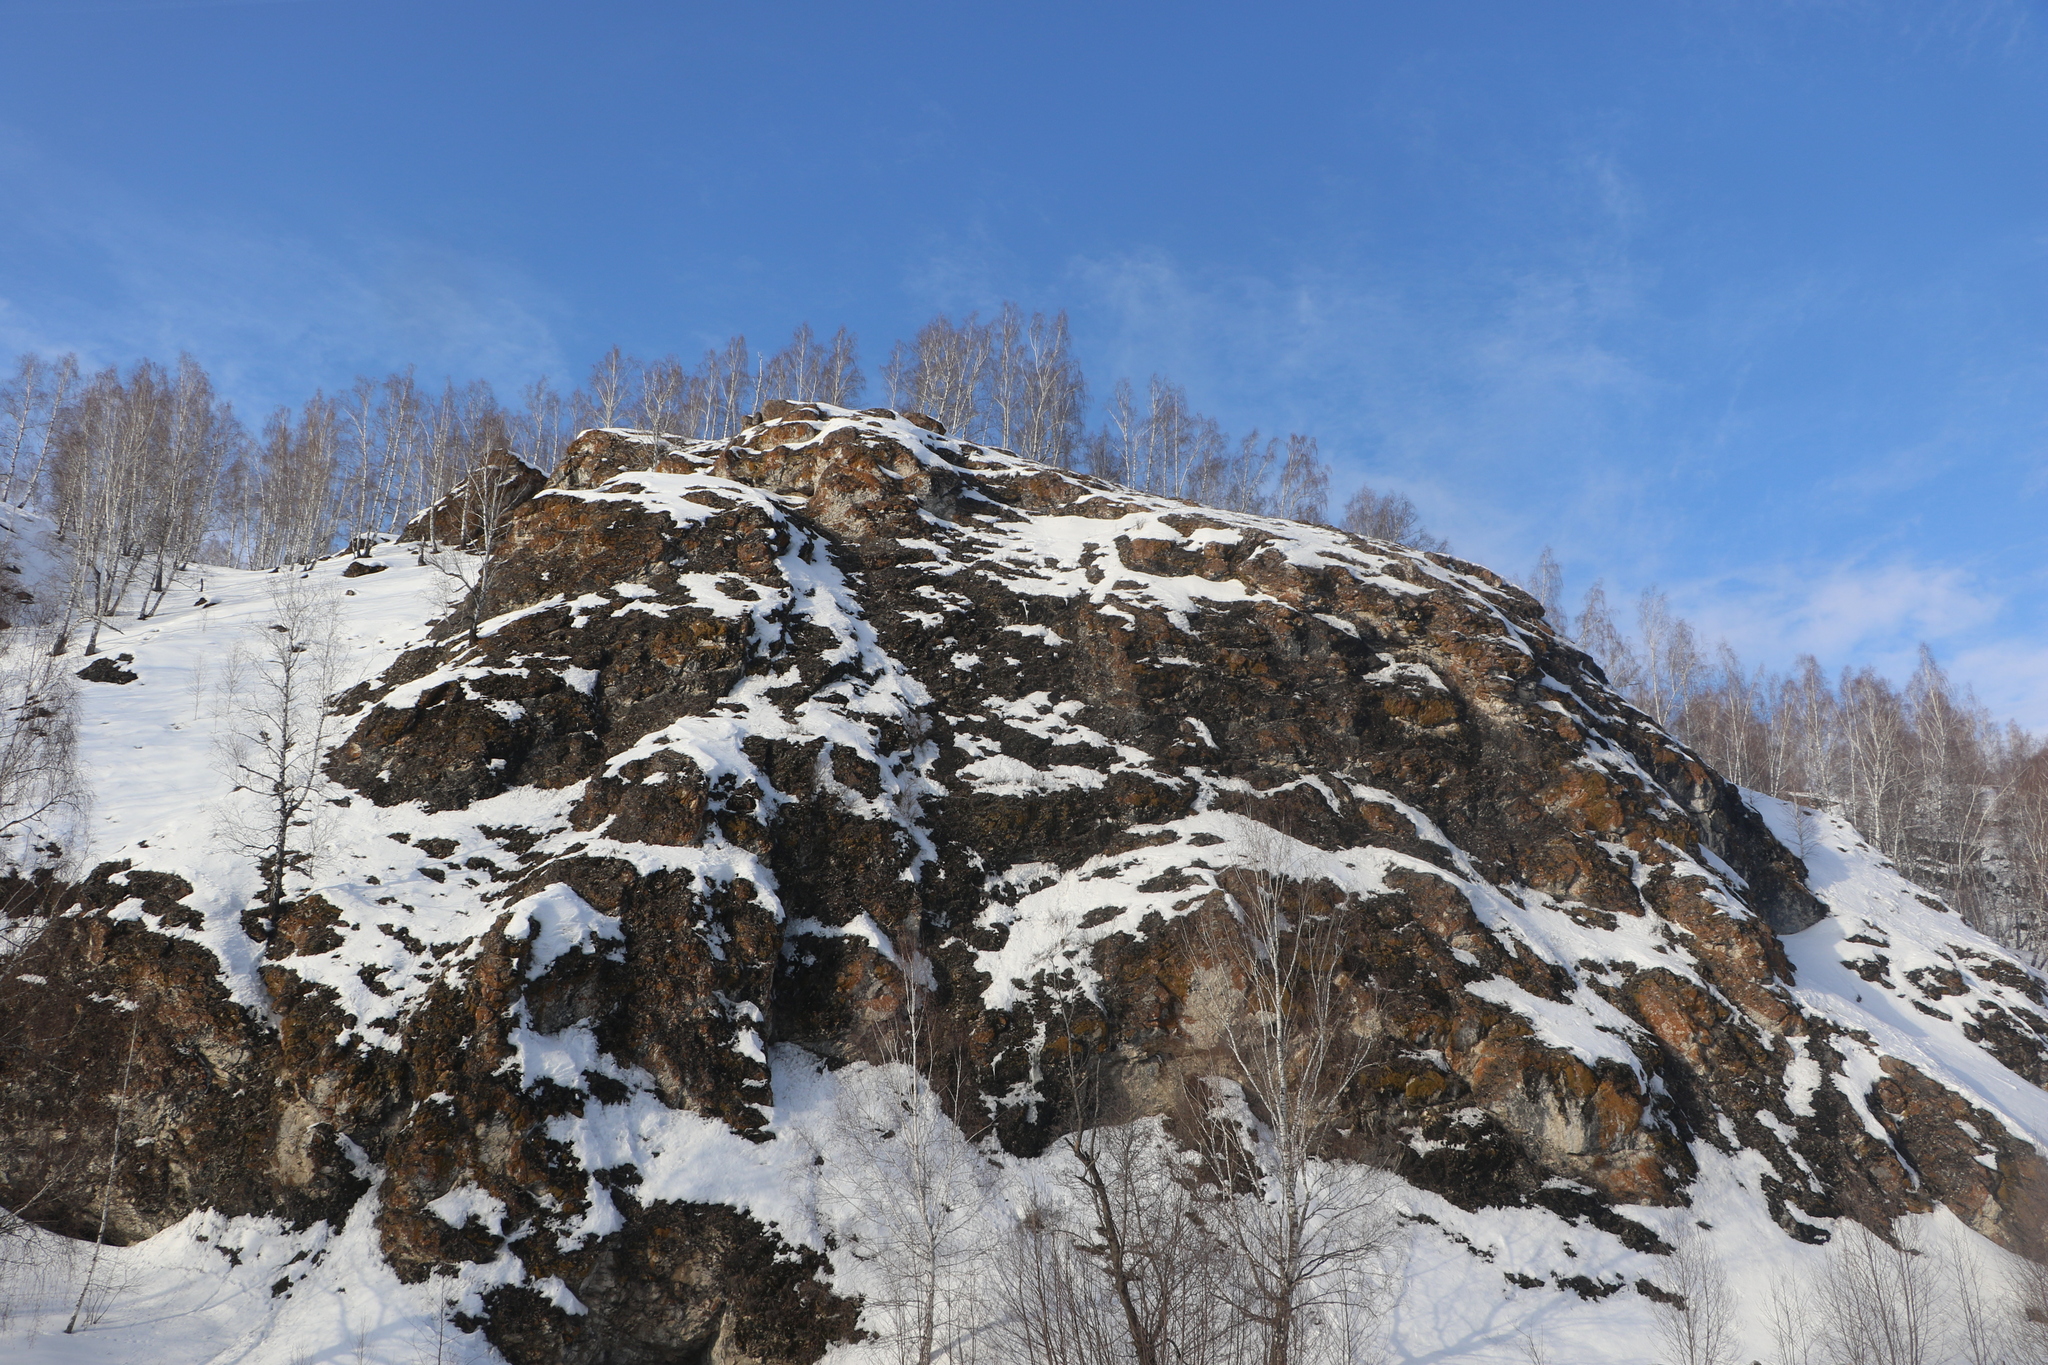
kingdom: Plantae
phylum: Tracheophyta
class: Magnoliopsida
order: Fagales
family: Betulaceae
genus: Betula
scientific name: Betula pendula
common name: Silver birch
